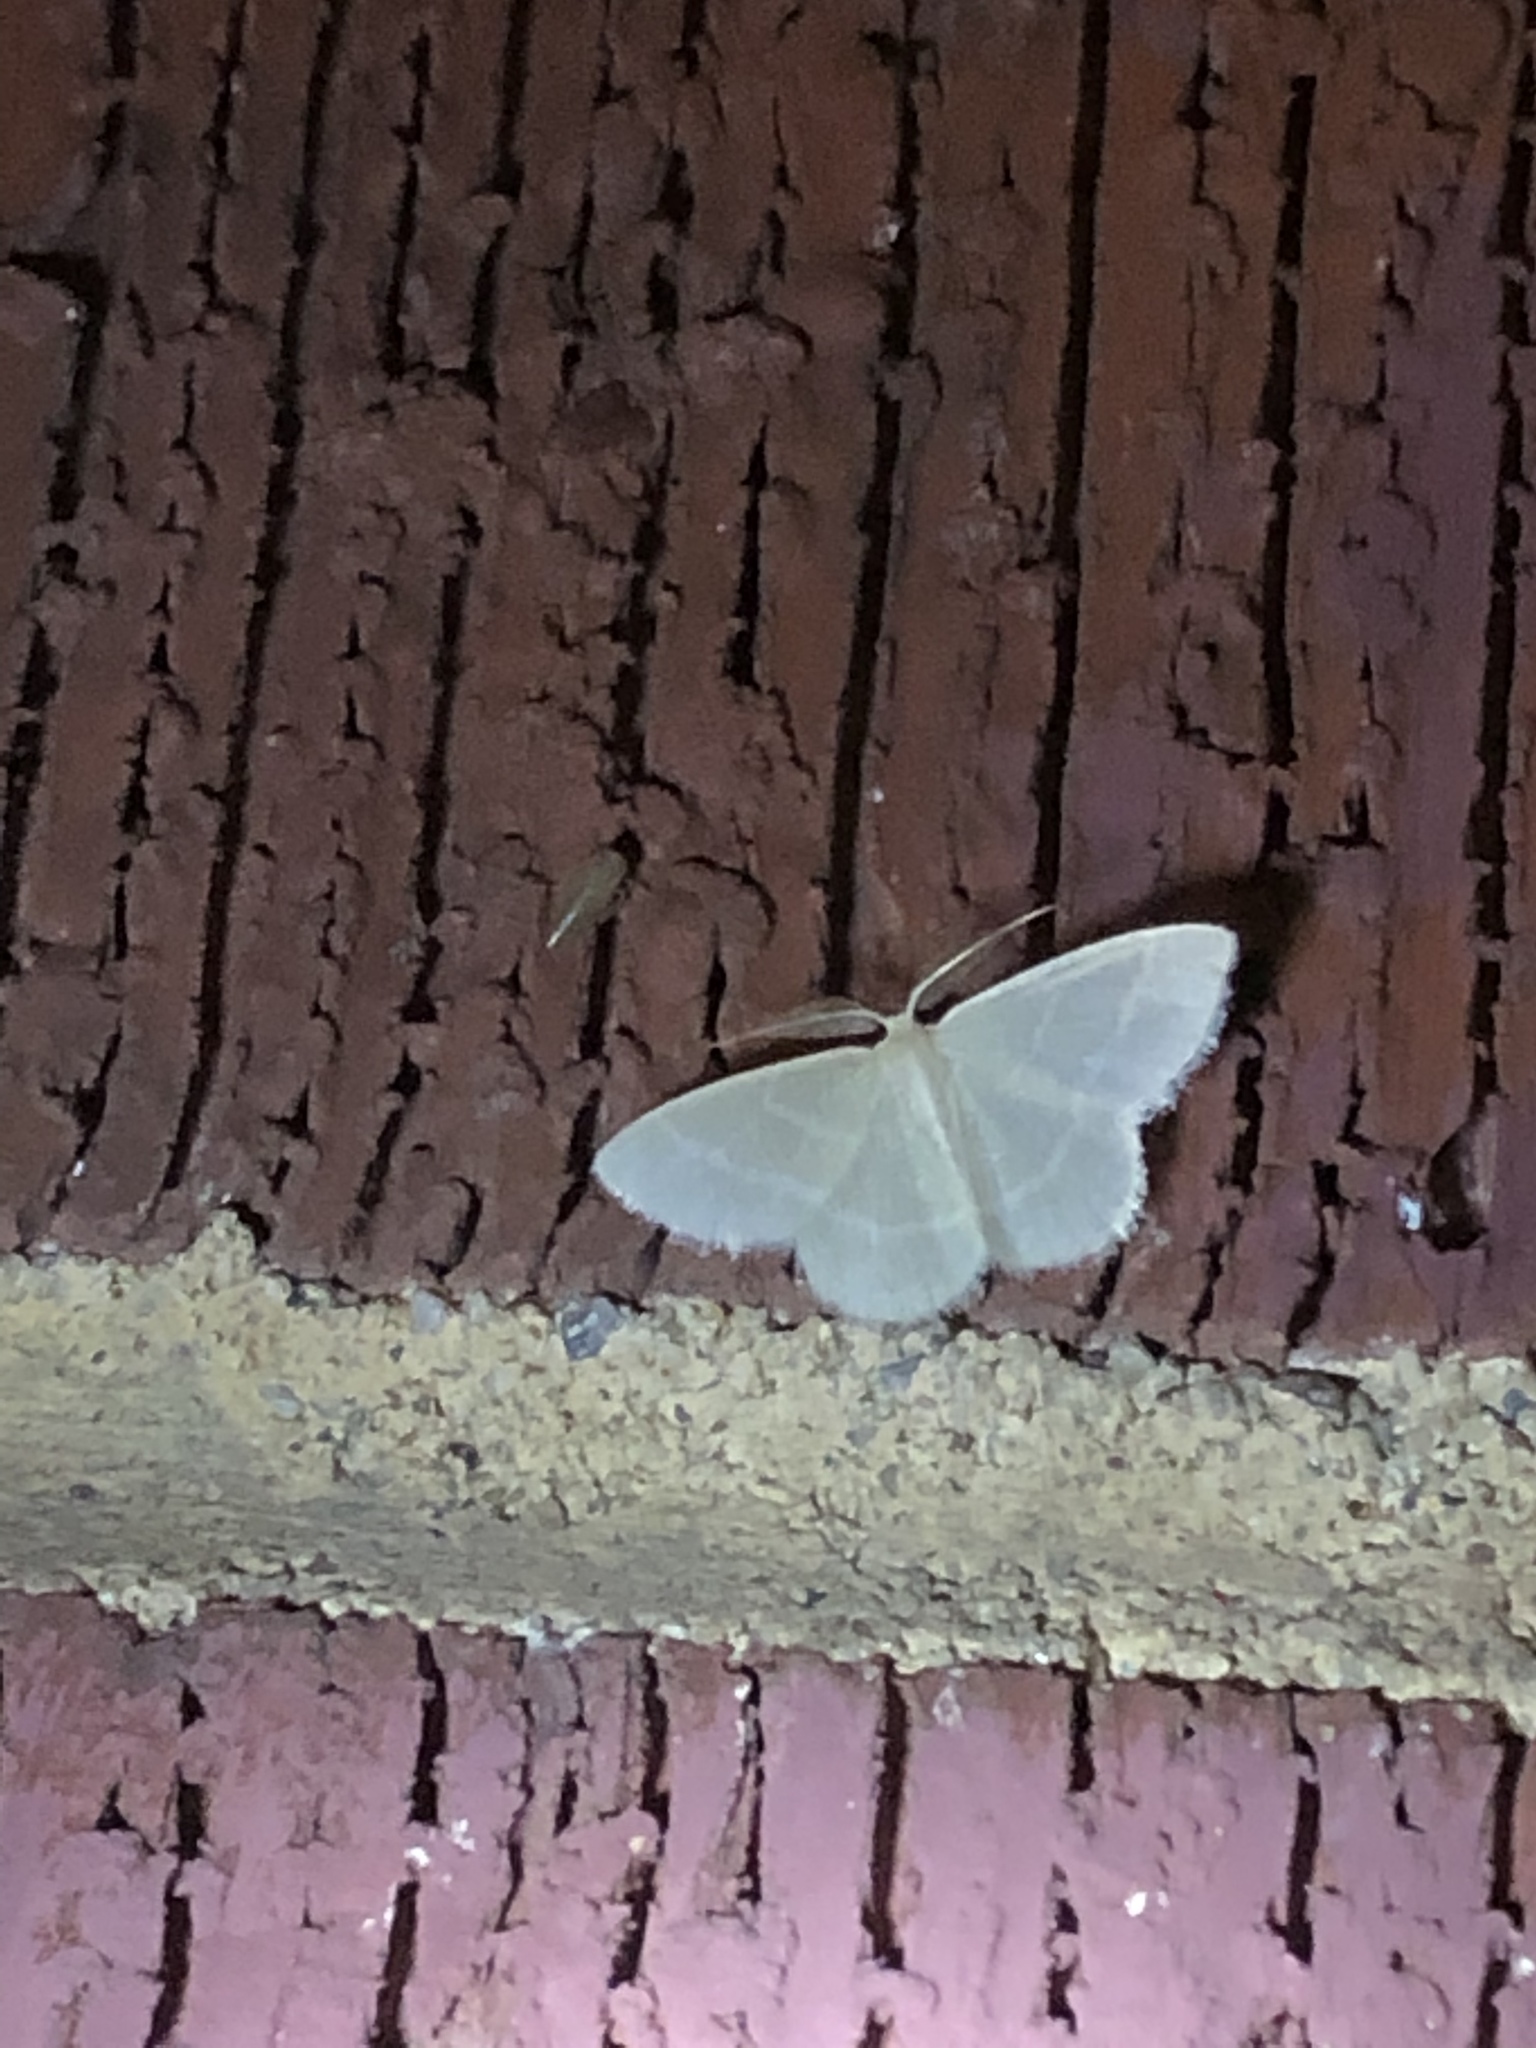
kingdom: Animalia
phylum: Arthropoda
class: Insecta
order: Lepidoptera
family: Geometridae
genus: Chlorochlamys
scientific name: Chlorochlamys chloroleucaria
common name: Blackberry looper
